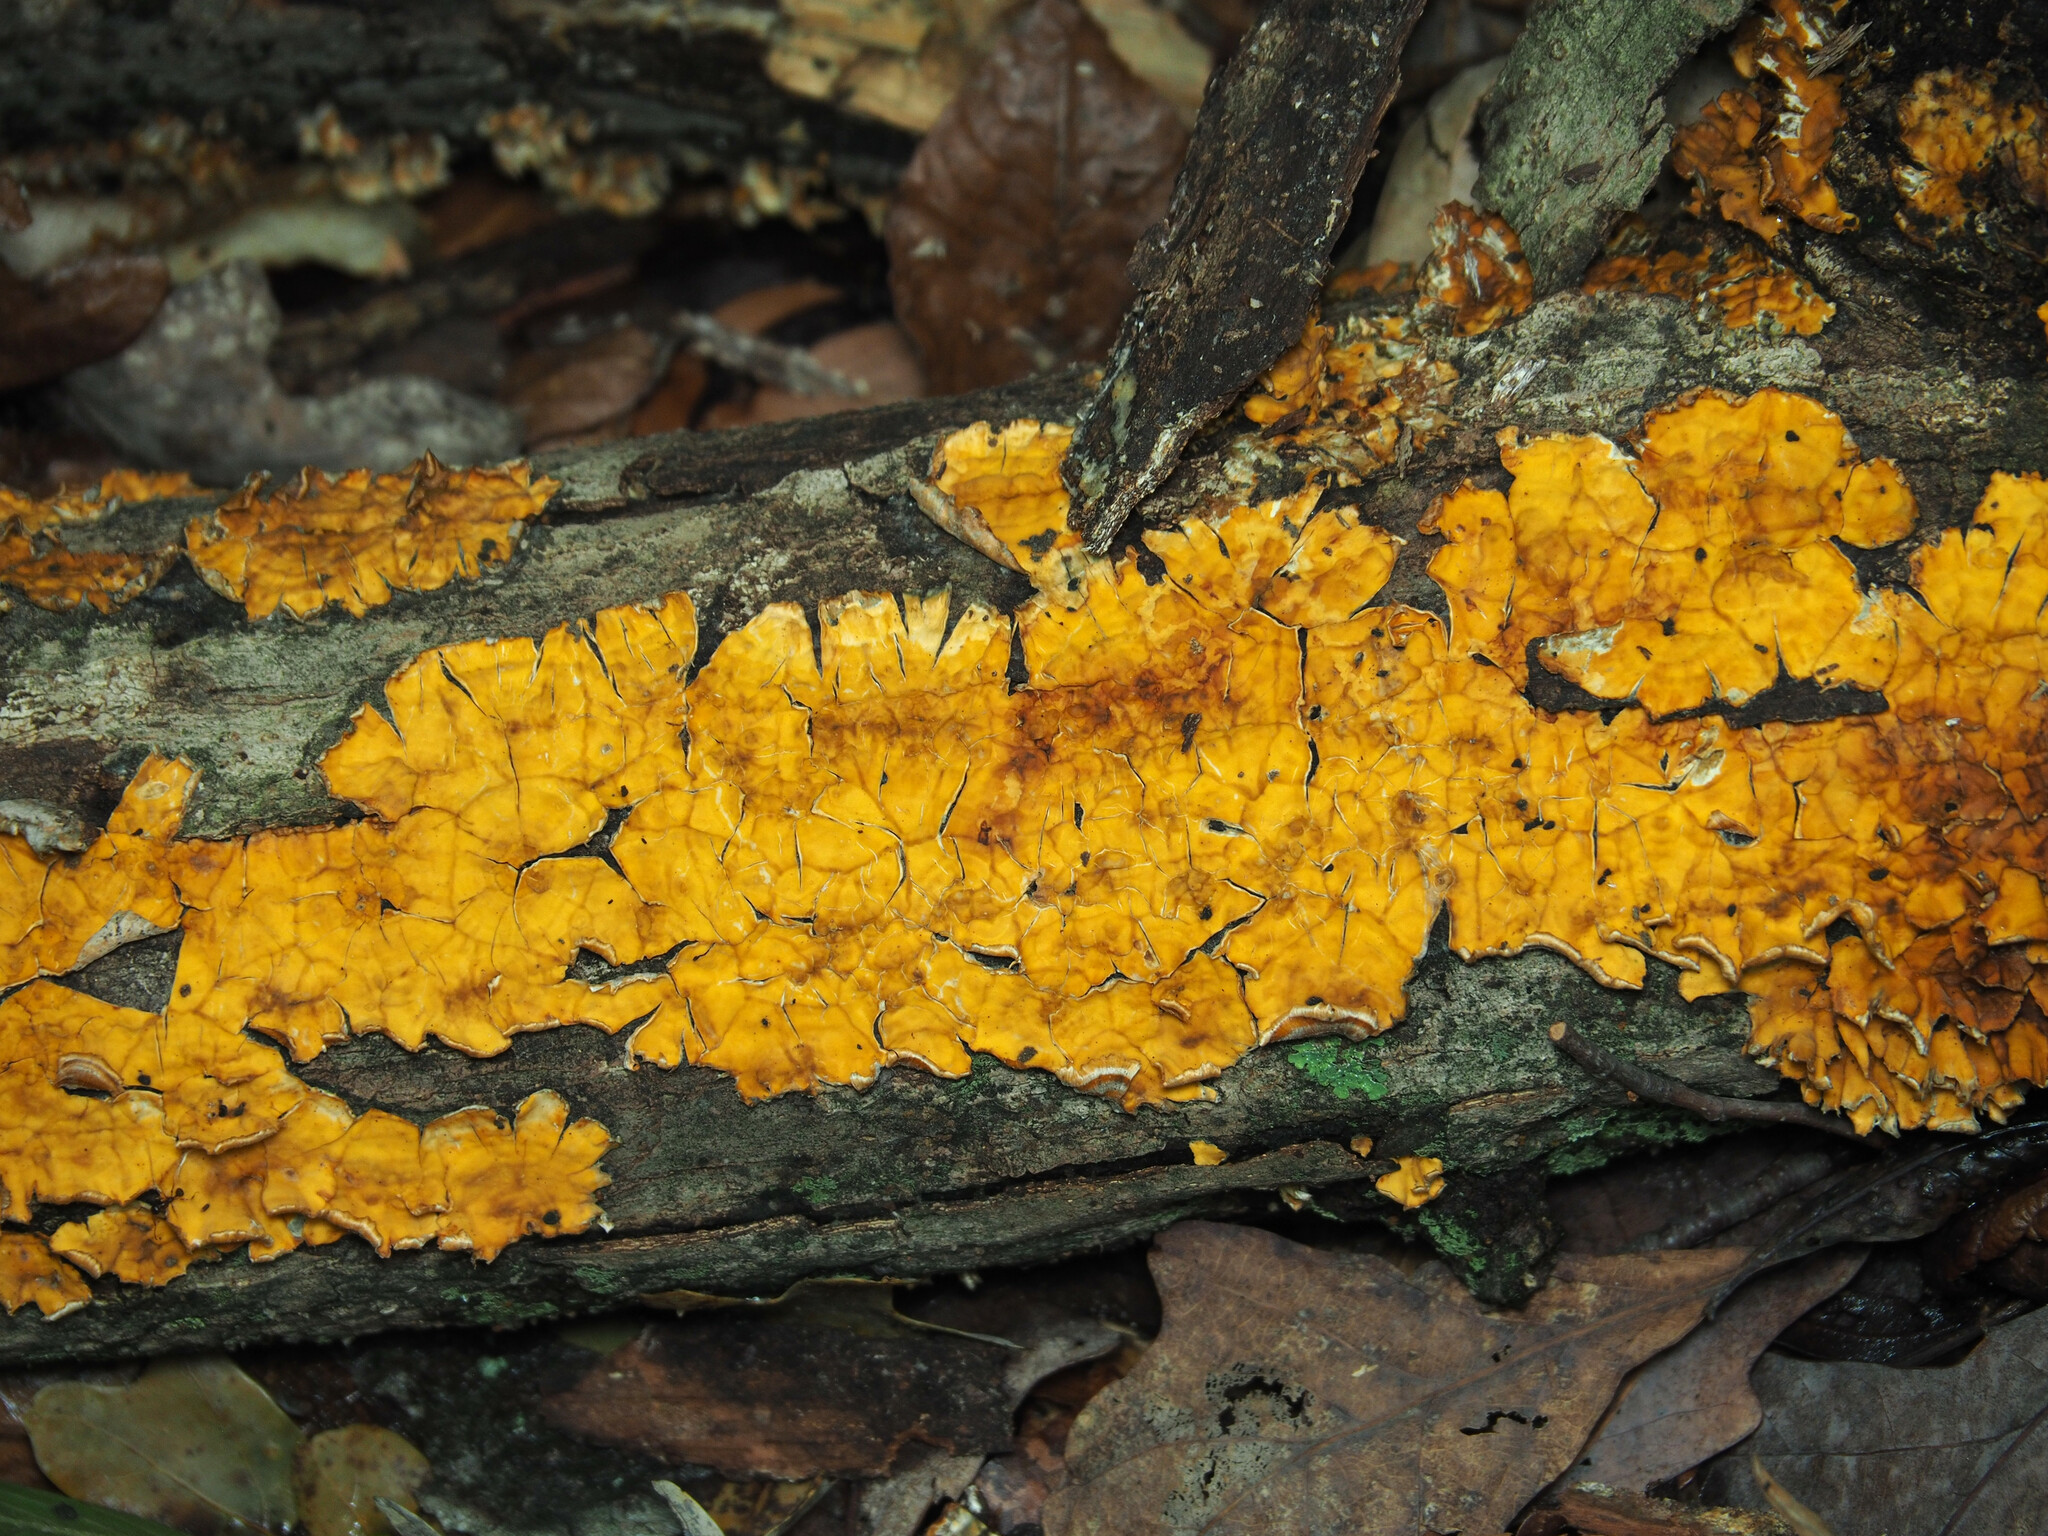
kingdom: Fungi
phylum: Basidiomycota
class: Agaricomycetes
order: Russulales
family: Stereaceae
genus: Stereum
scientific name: Stereum complicatum
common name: Crowded parchment
